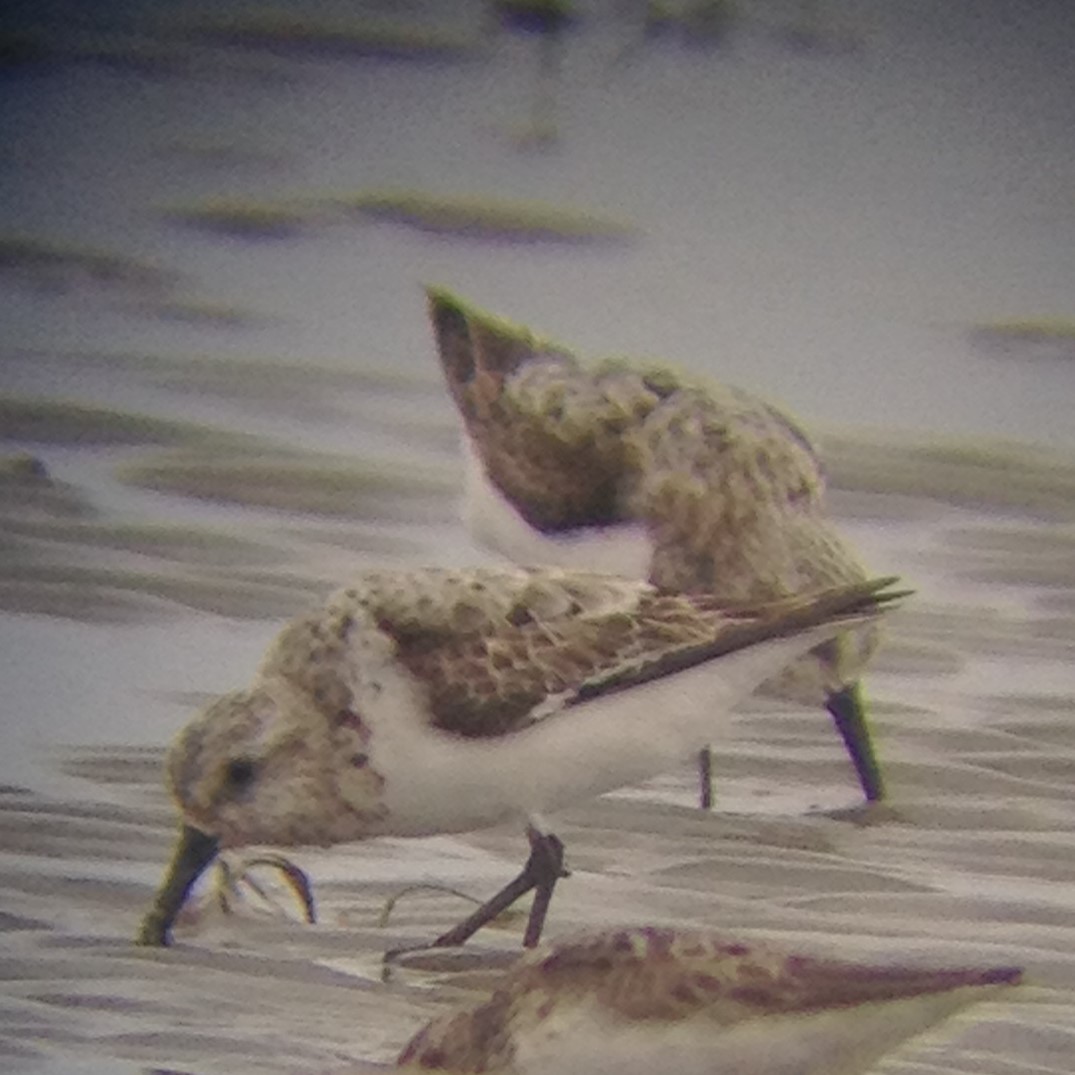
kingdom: Animalia
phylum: Chordata
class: Aves
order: Charadriiformes
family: Scolopacidae
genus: Calidris
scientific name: Calidris alba
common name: Sanderling
